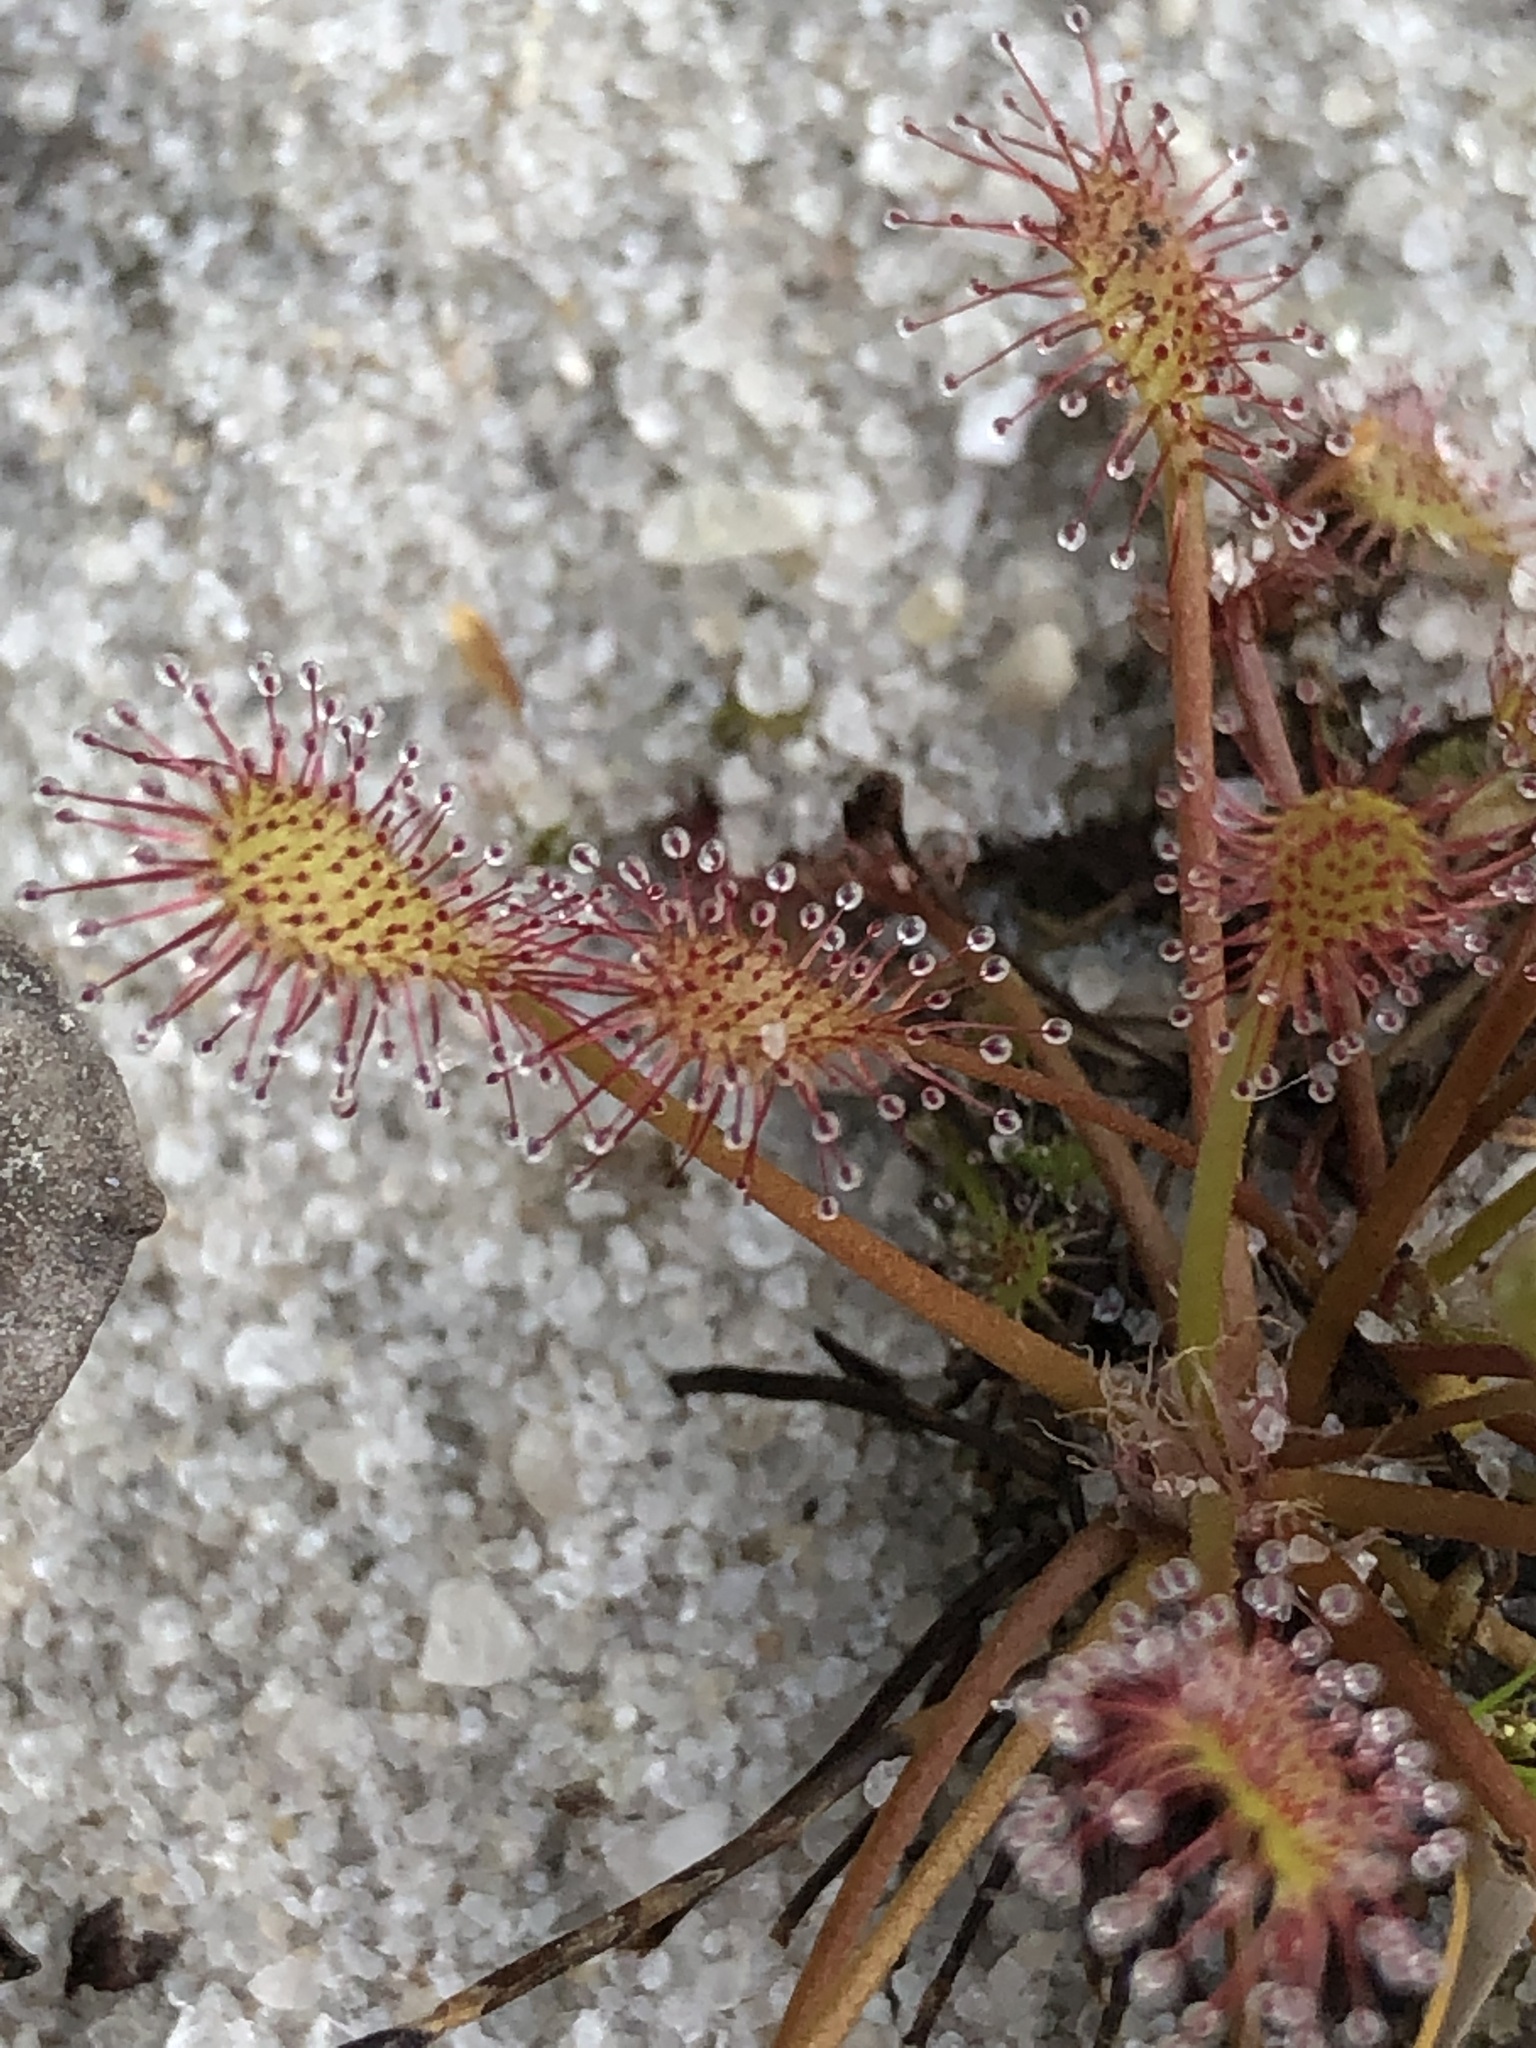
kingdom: Plantae
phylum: Tracheophyta
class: Magnoliopsida
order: Caryophyllales
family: Droseraceae
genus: Drosera
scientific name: Drosera intermedia
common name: Oblong-leaved sundew
